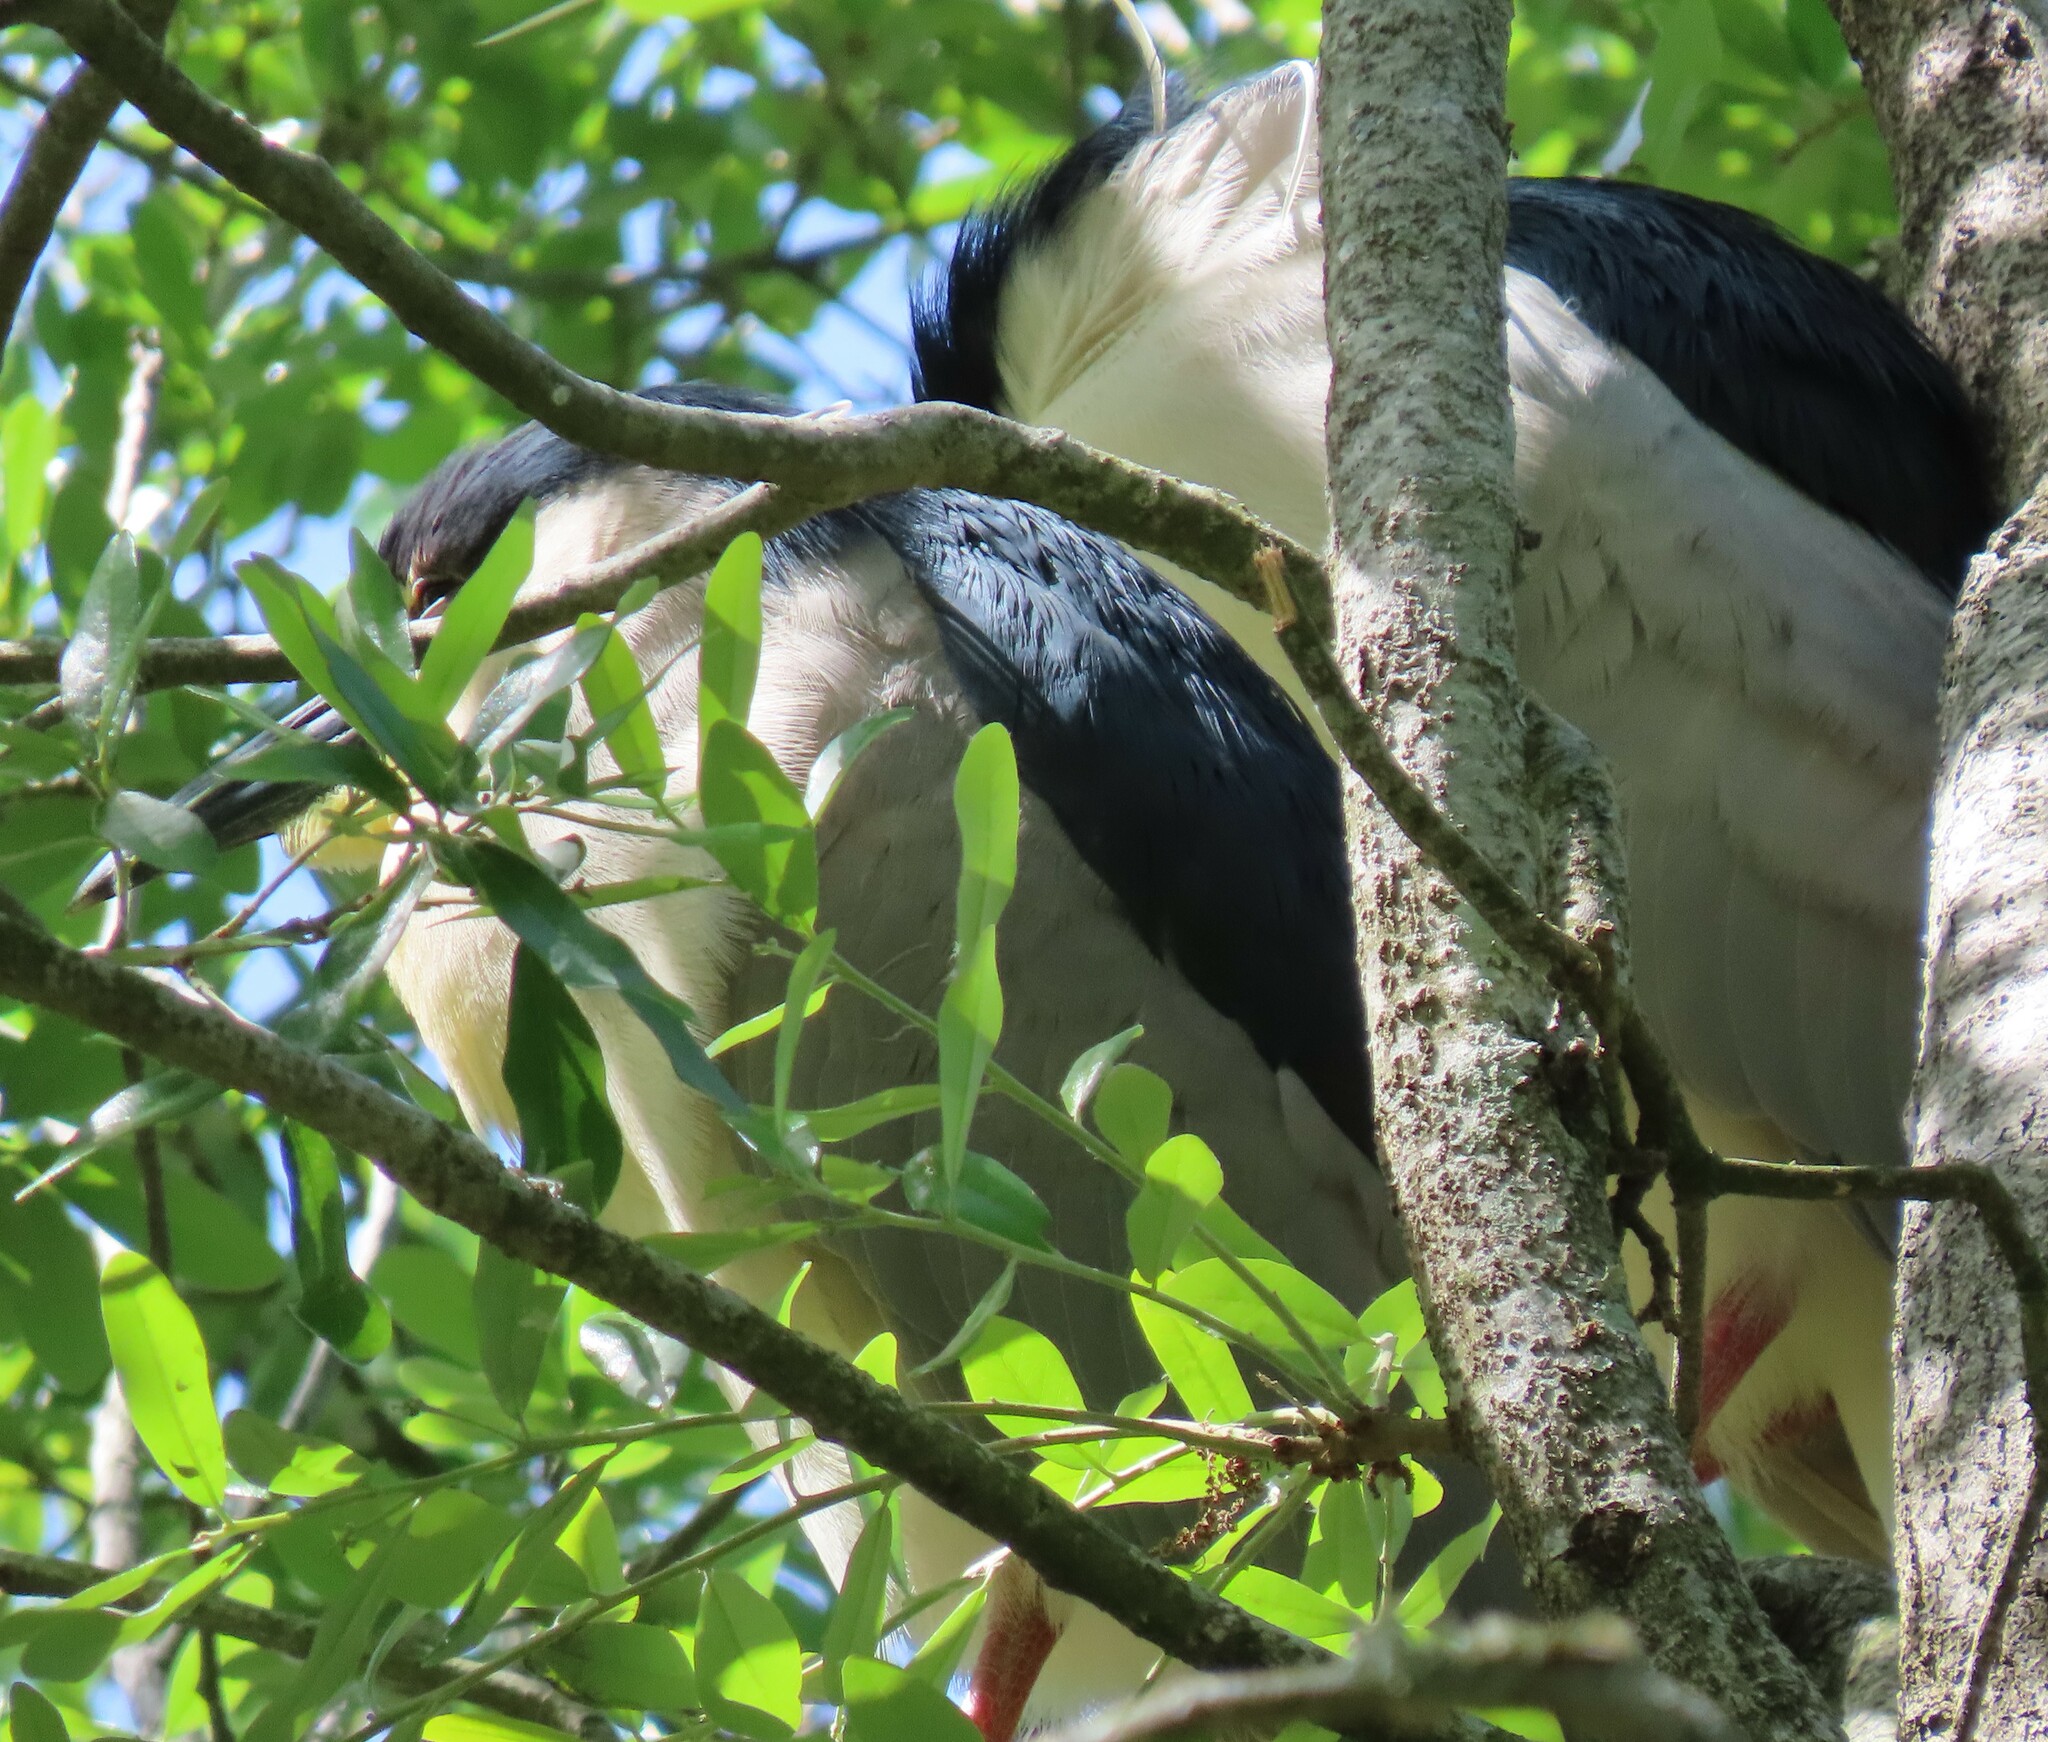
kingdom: Animalia
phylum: Chordata
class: Aves
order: Pelecaniformes
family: Ardeidae
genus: Nycticorax
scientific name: Nycticorax nycticorax
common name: Black-crowned night heron
